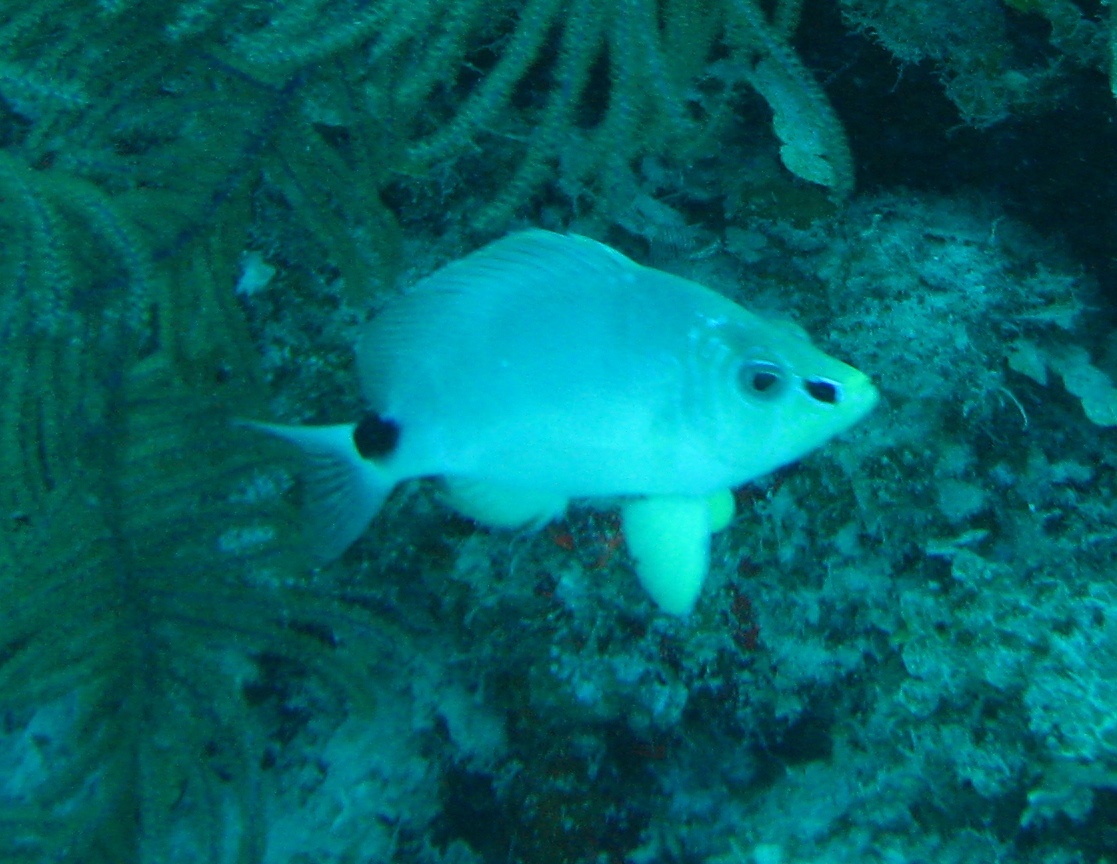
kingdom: Animalia
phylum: Chordata
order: Perciformes
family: Serranidae
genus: Hypoplectrus
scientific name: Hypoplectrus unicolor
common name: Butter hamlet
